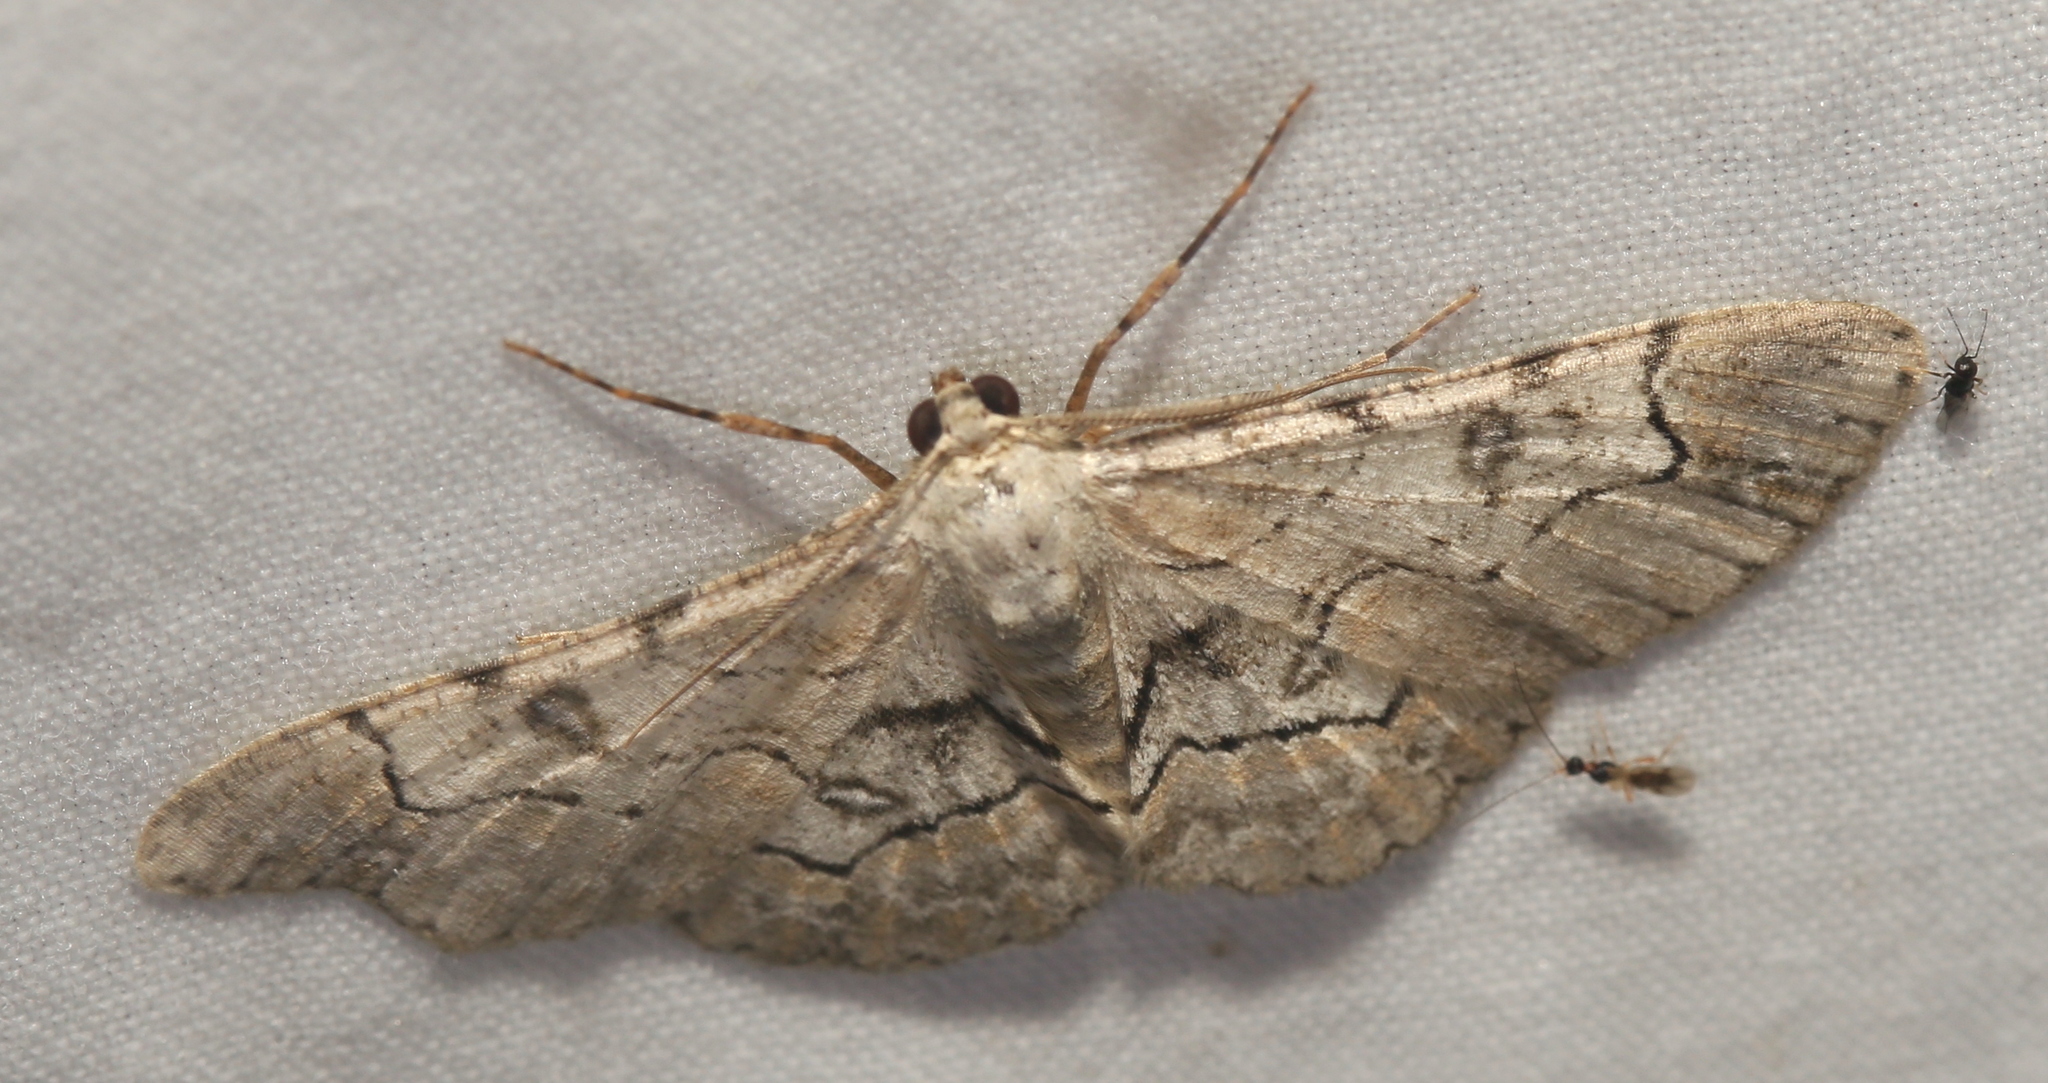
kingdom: Animalia
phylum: Arthropoda
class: Insecta
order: Lepidoptera
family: Geometridae
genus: Iridopsis
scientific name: Iridopsis larvaria
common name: Bent-line gray
